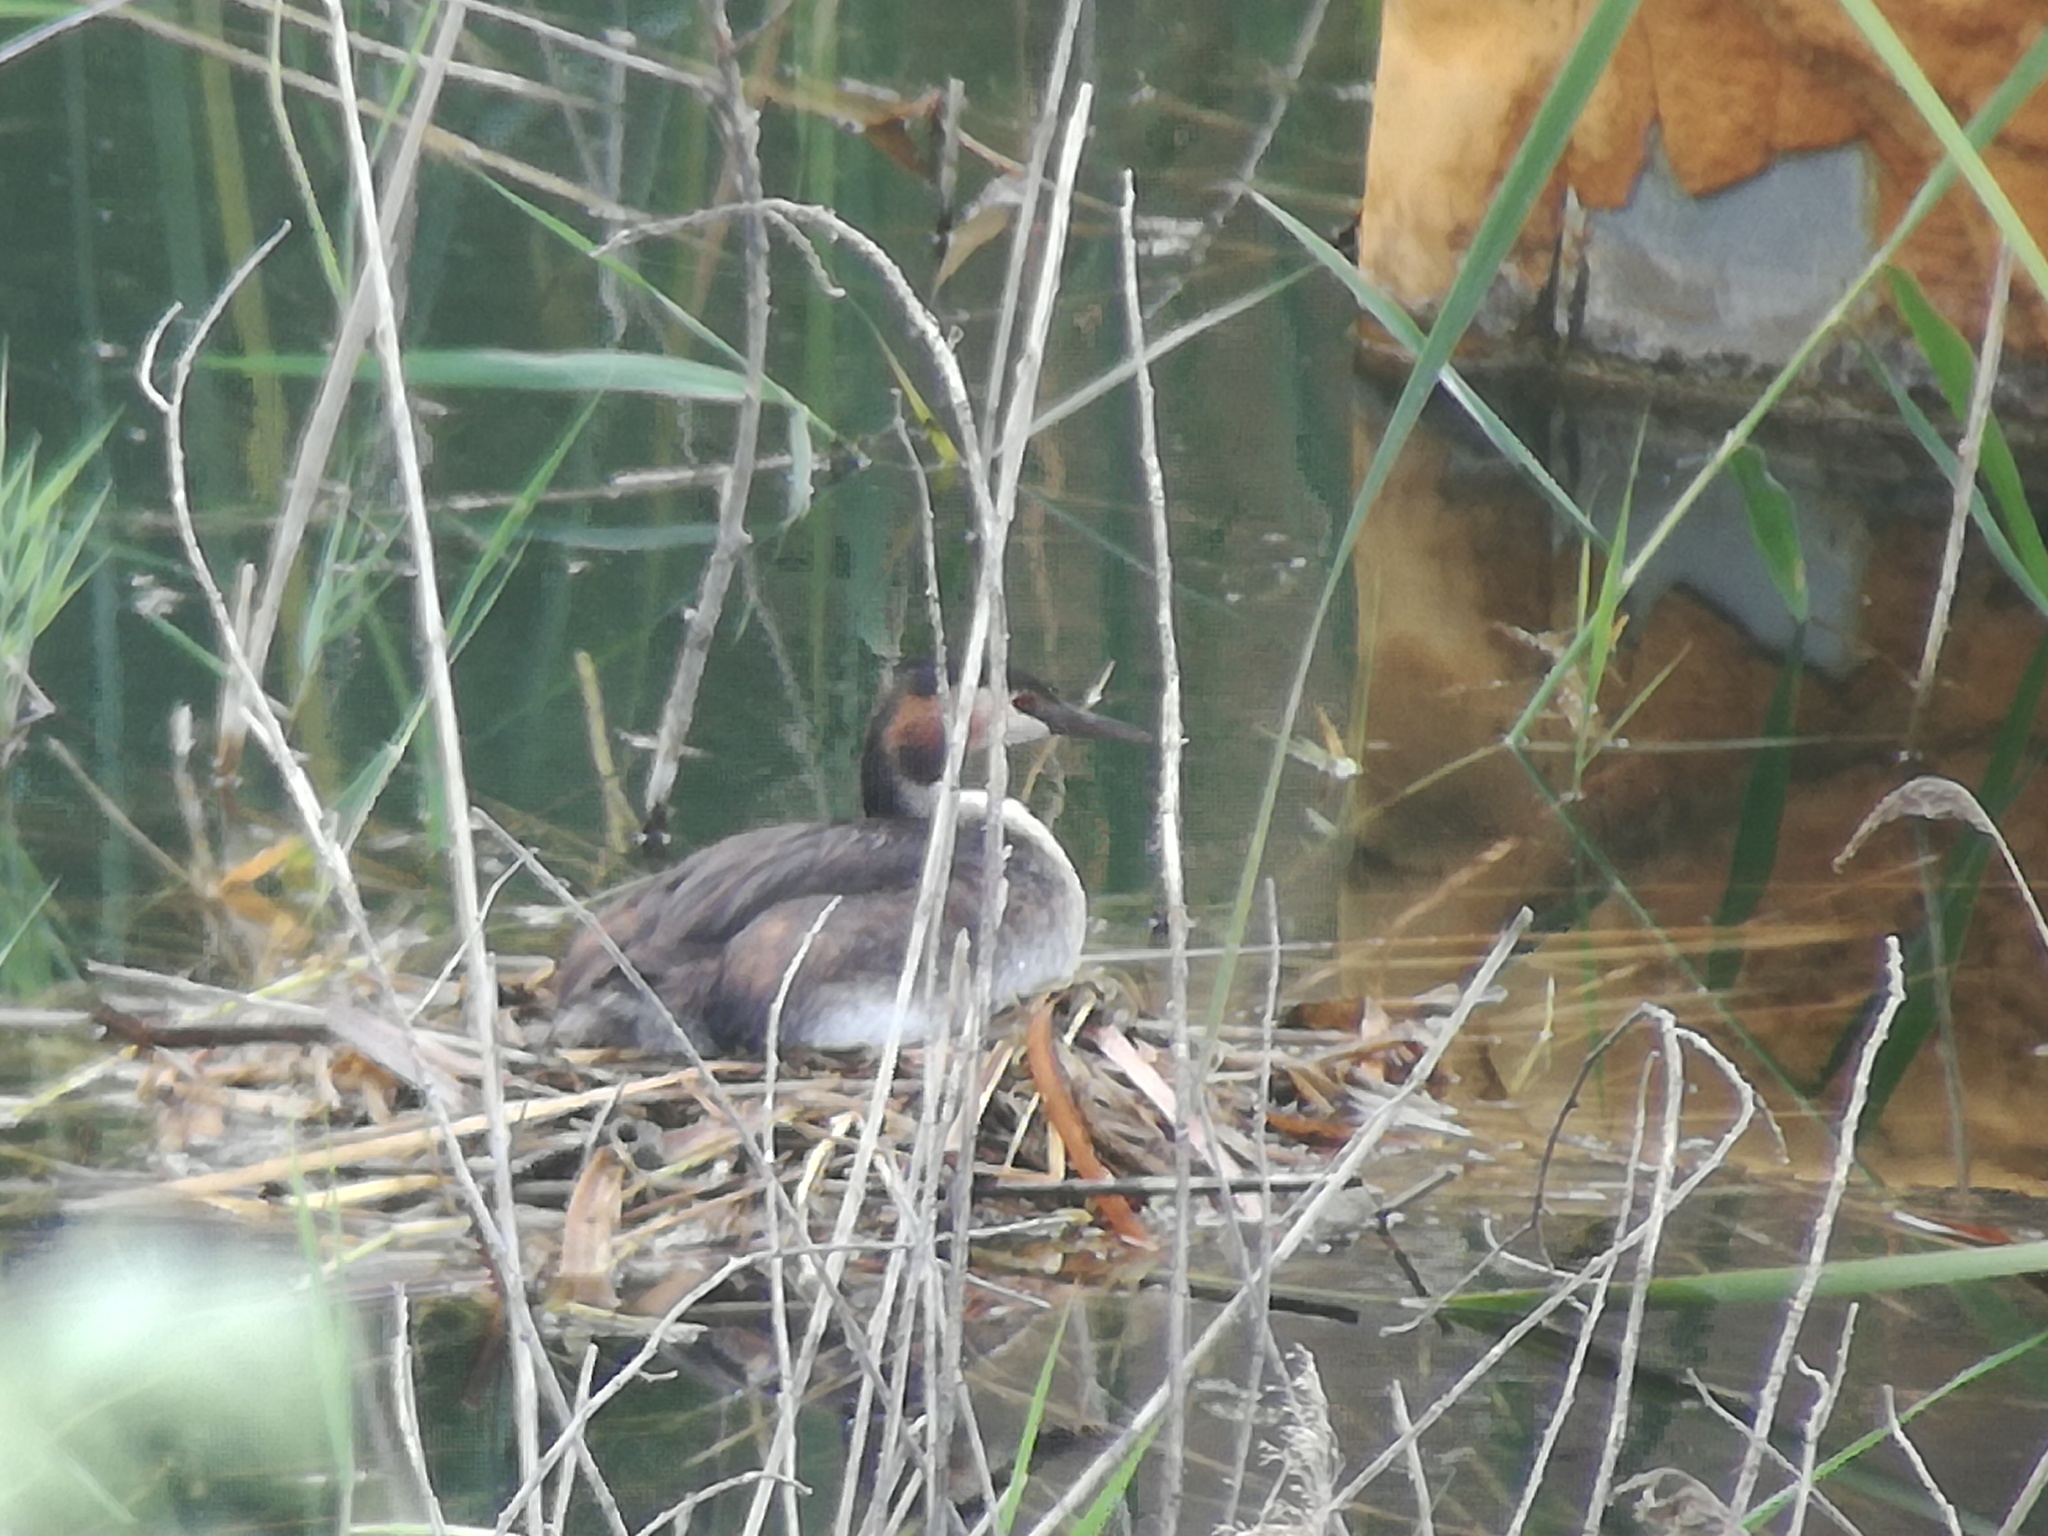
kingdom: Animalia
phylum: Chordata
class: Aves
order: Podicipediformes
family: Podicipedidae
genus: Podiceps
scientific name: Podiceps cristatus
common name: Great crested grebe
